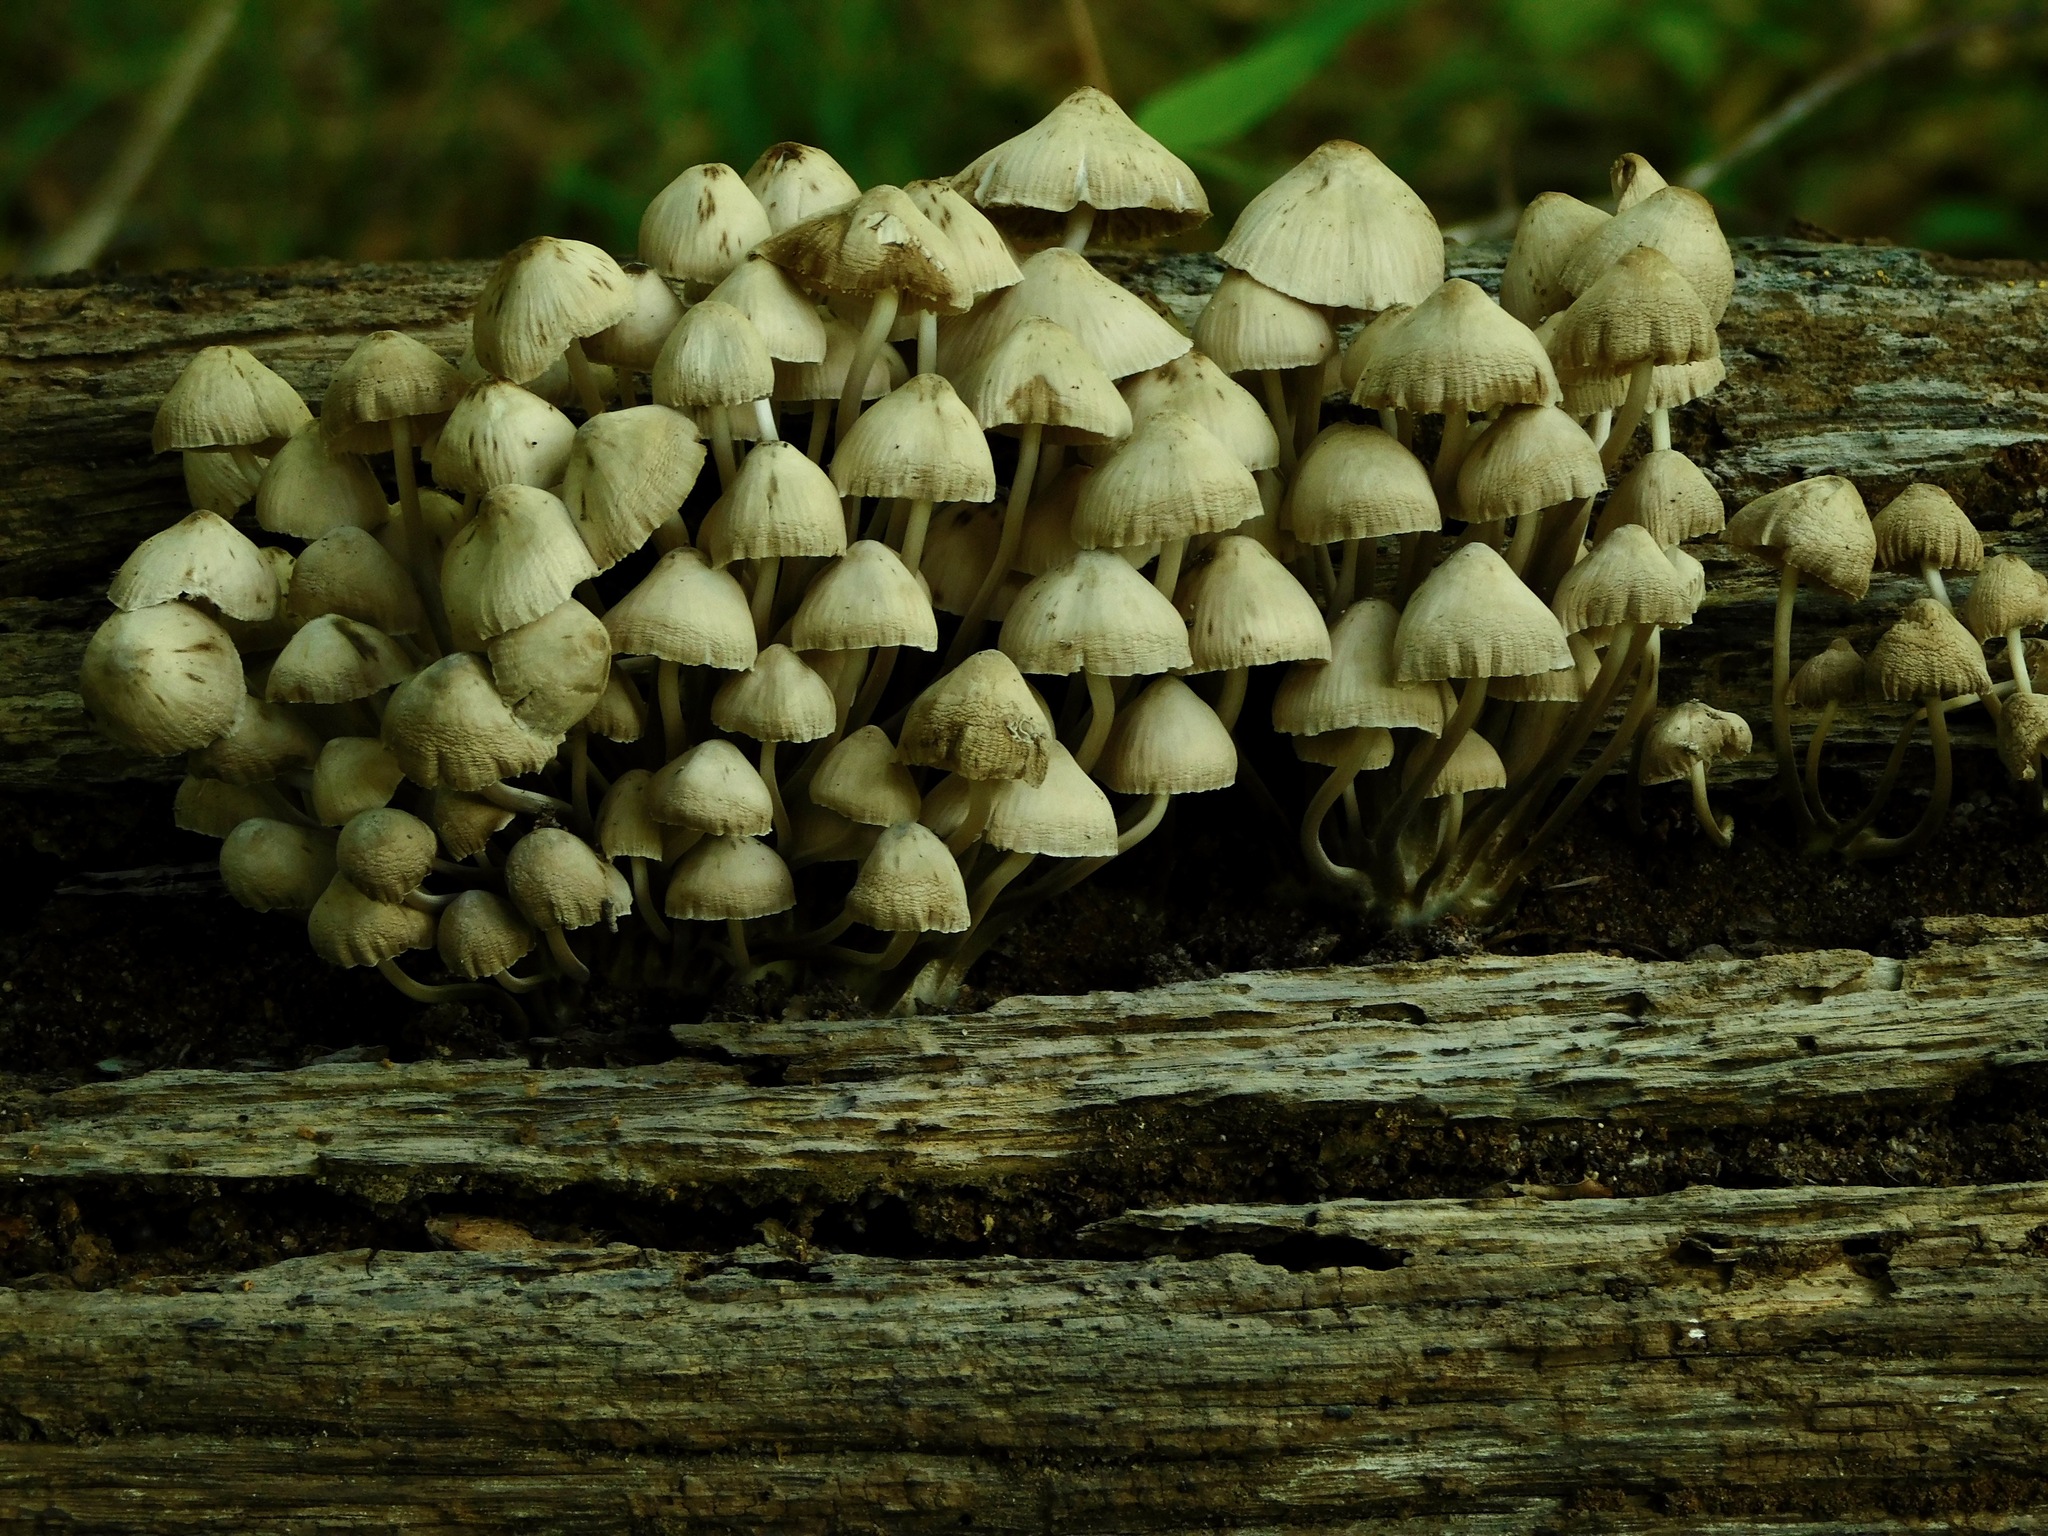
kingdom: Fungi
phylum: Basidiomycota
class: Agaricomycetes
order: Agaricales
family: Psathyrellaceae
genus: Coprinellus
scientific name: Coprinellus disseminatus
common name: Fairies' bonnets
